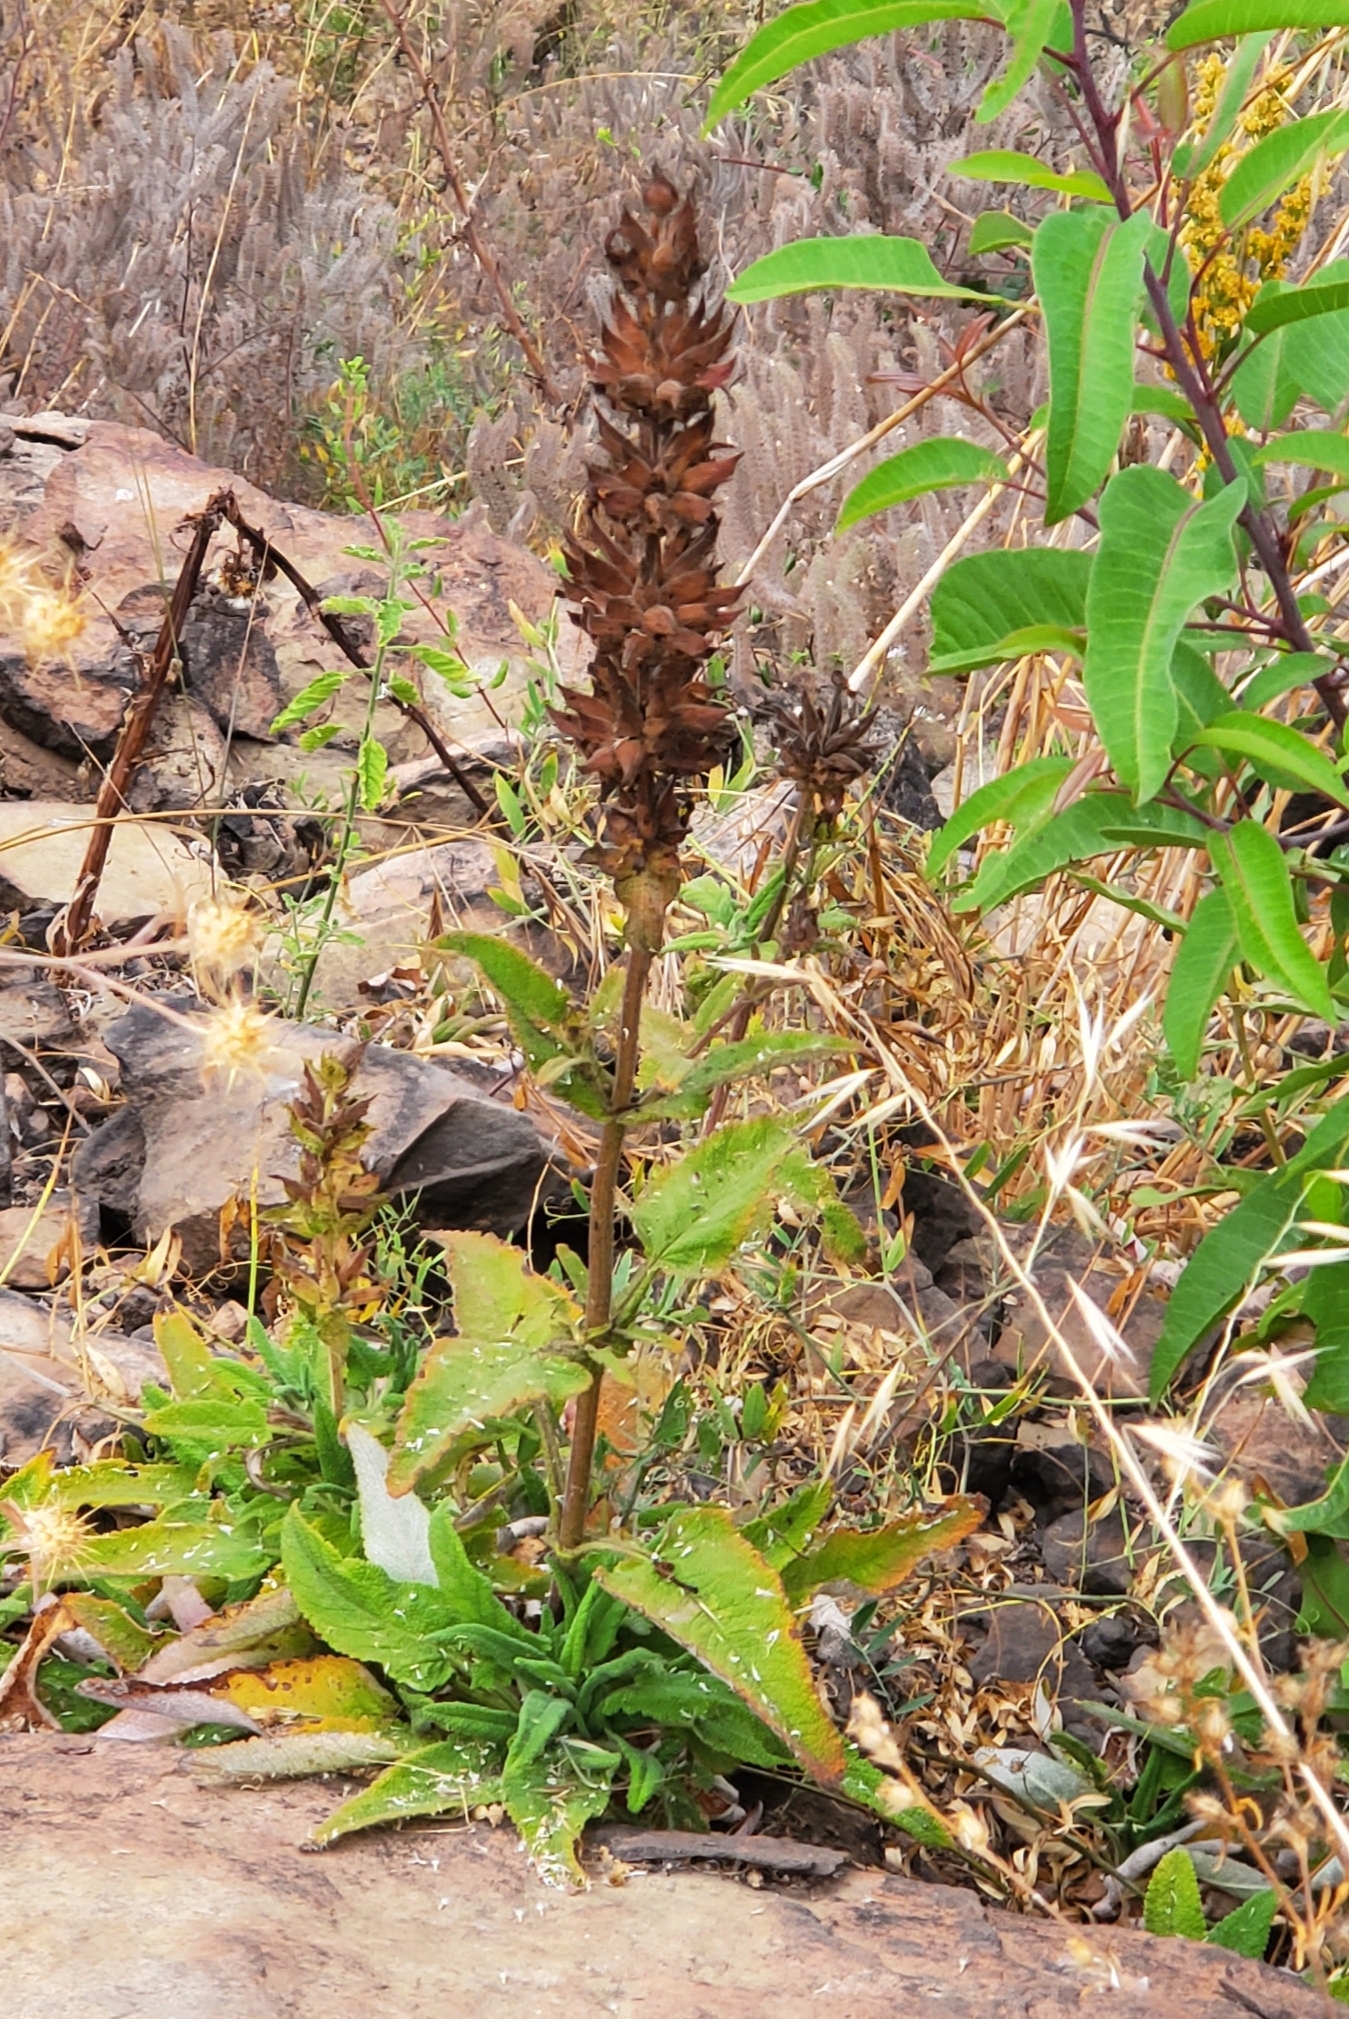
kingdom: Plantae
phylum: Tracheophyta
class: Magnoliopsida
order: Lamiales
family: Lamiaceae
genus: Salvia
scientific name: Salvia spathacea
